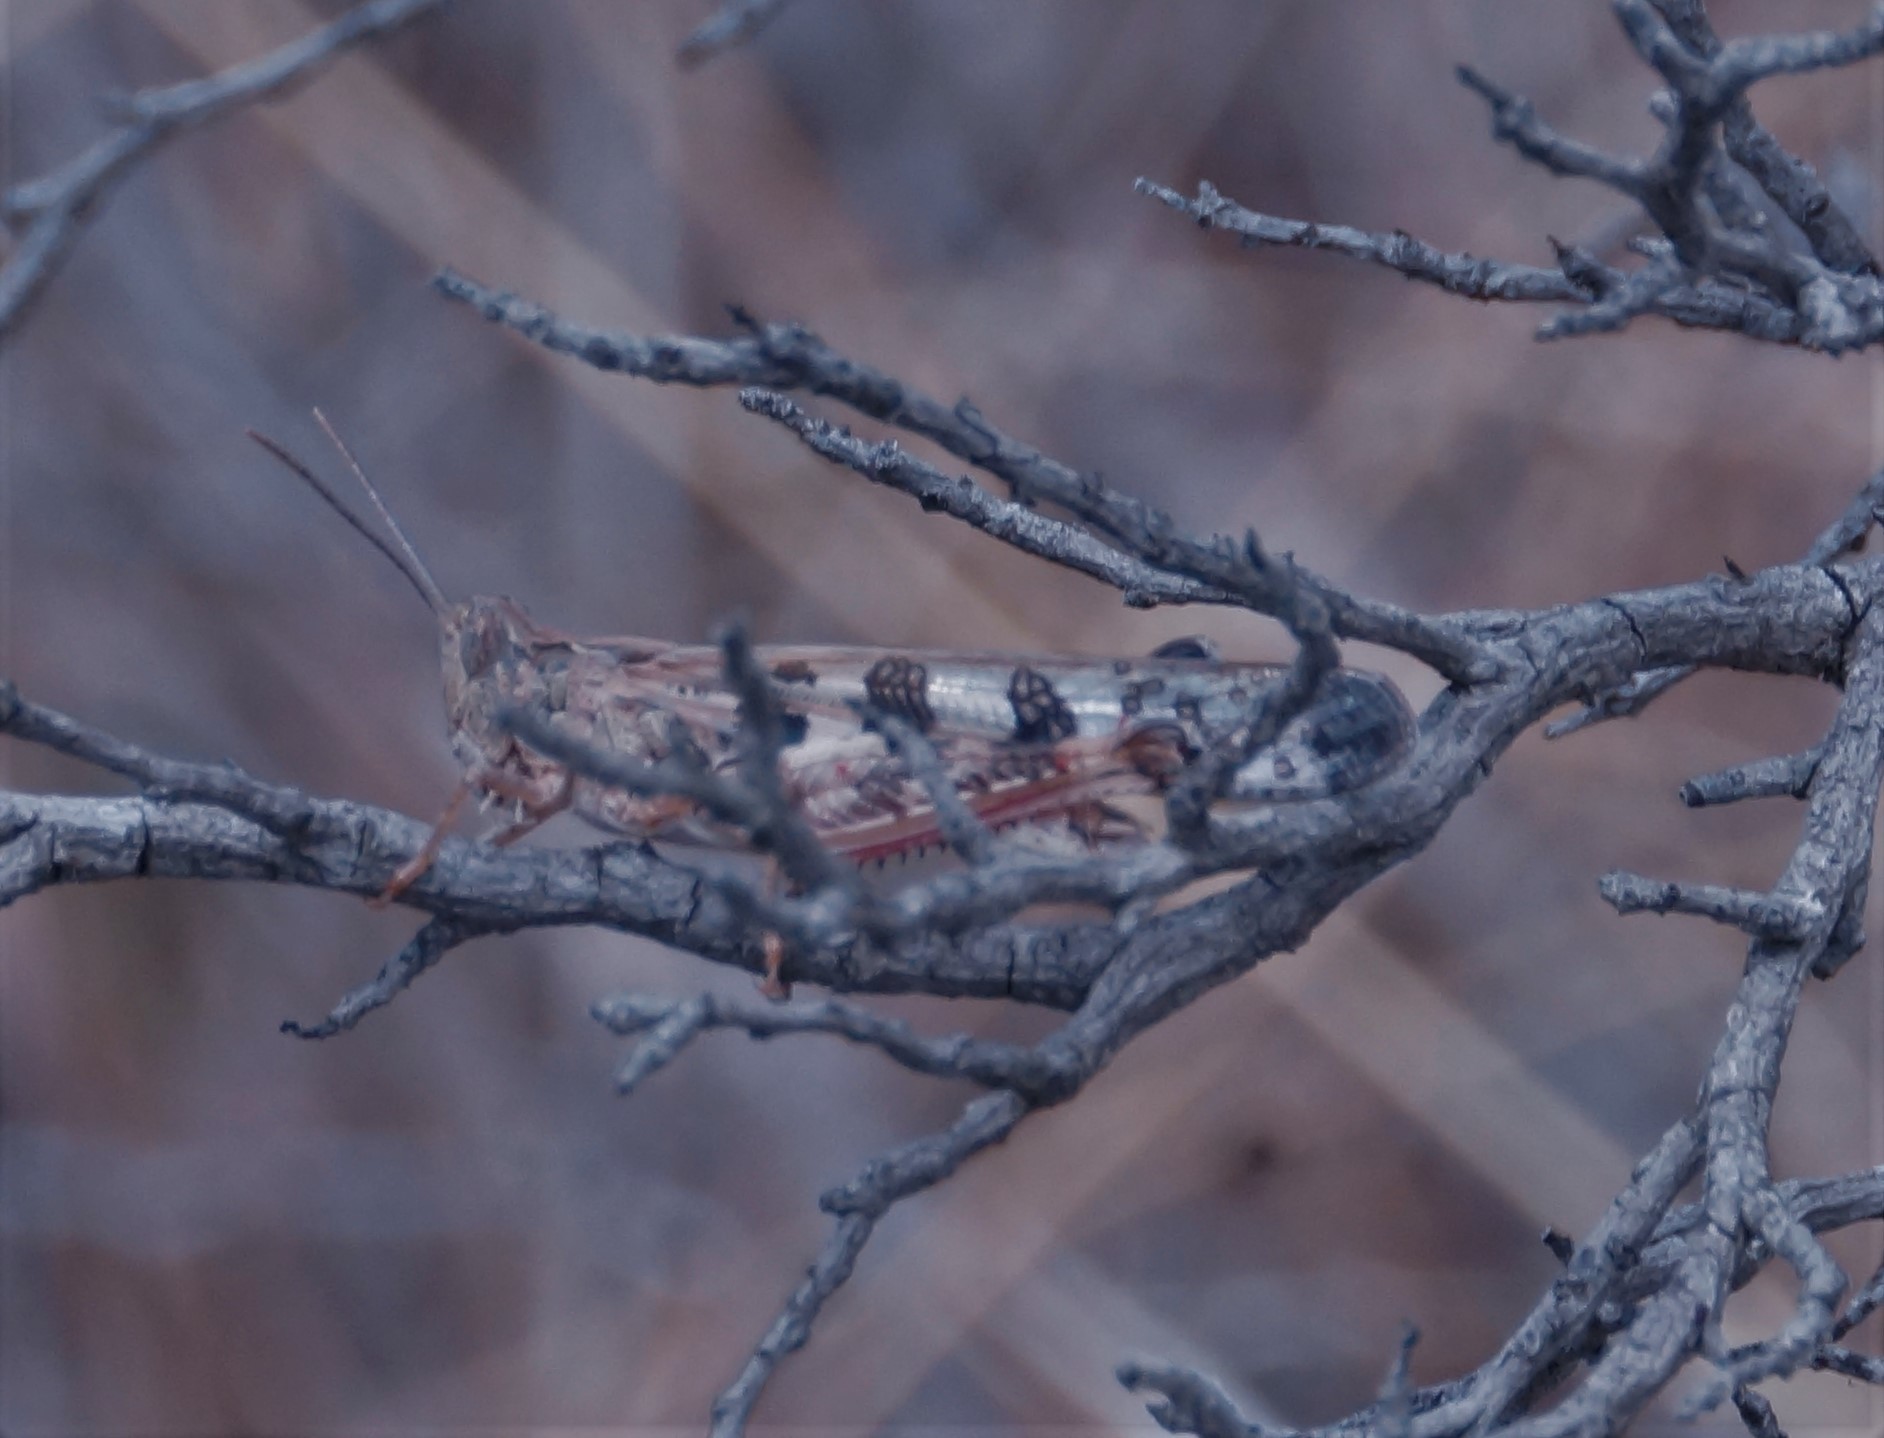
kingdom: Animalia
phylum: Arthropoda
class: Insecta
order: Orthoptera
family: Acrididae
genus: Chortoicetes
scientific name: Chortoicetes terminifera
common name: Australian plague locust
